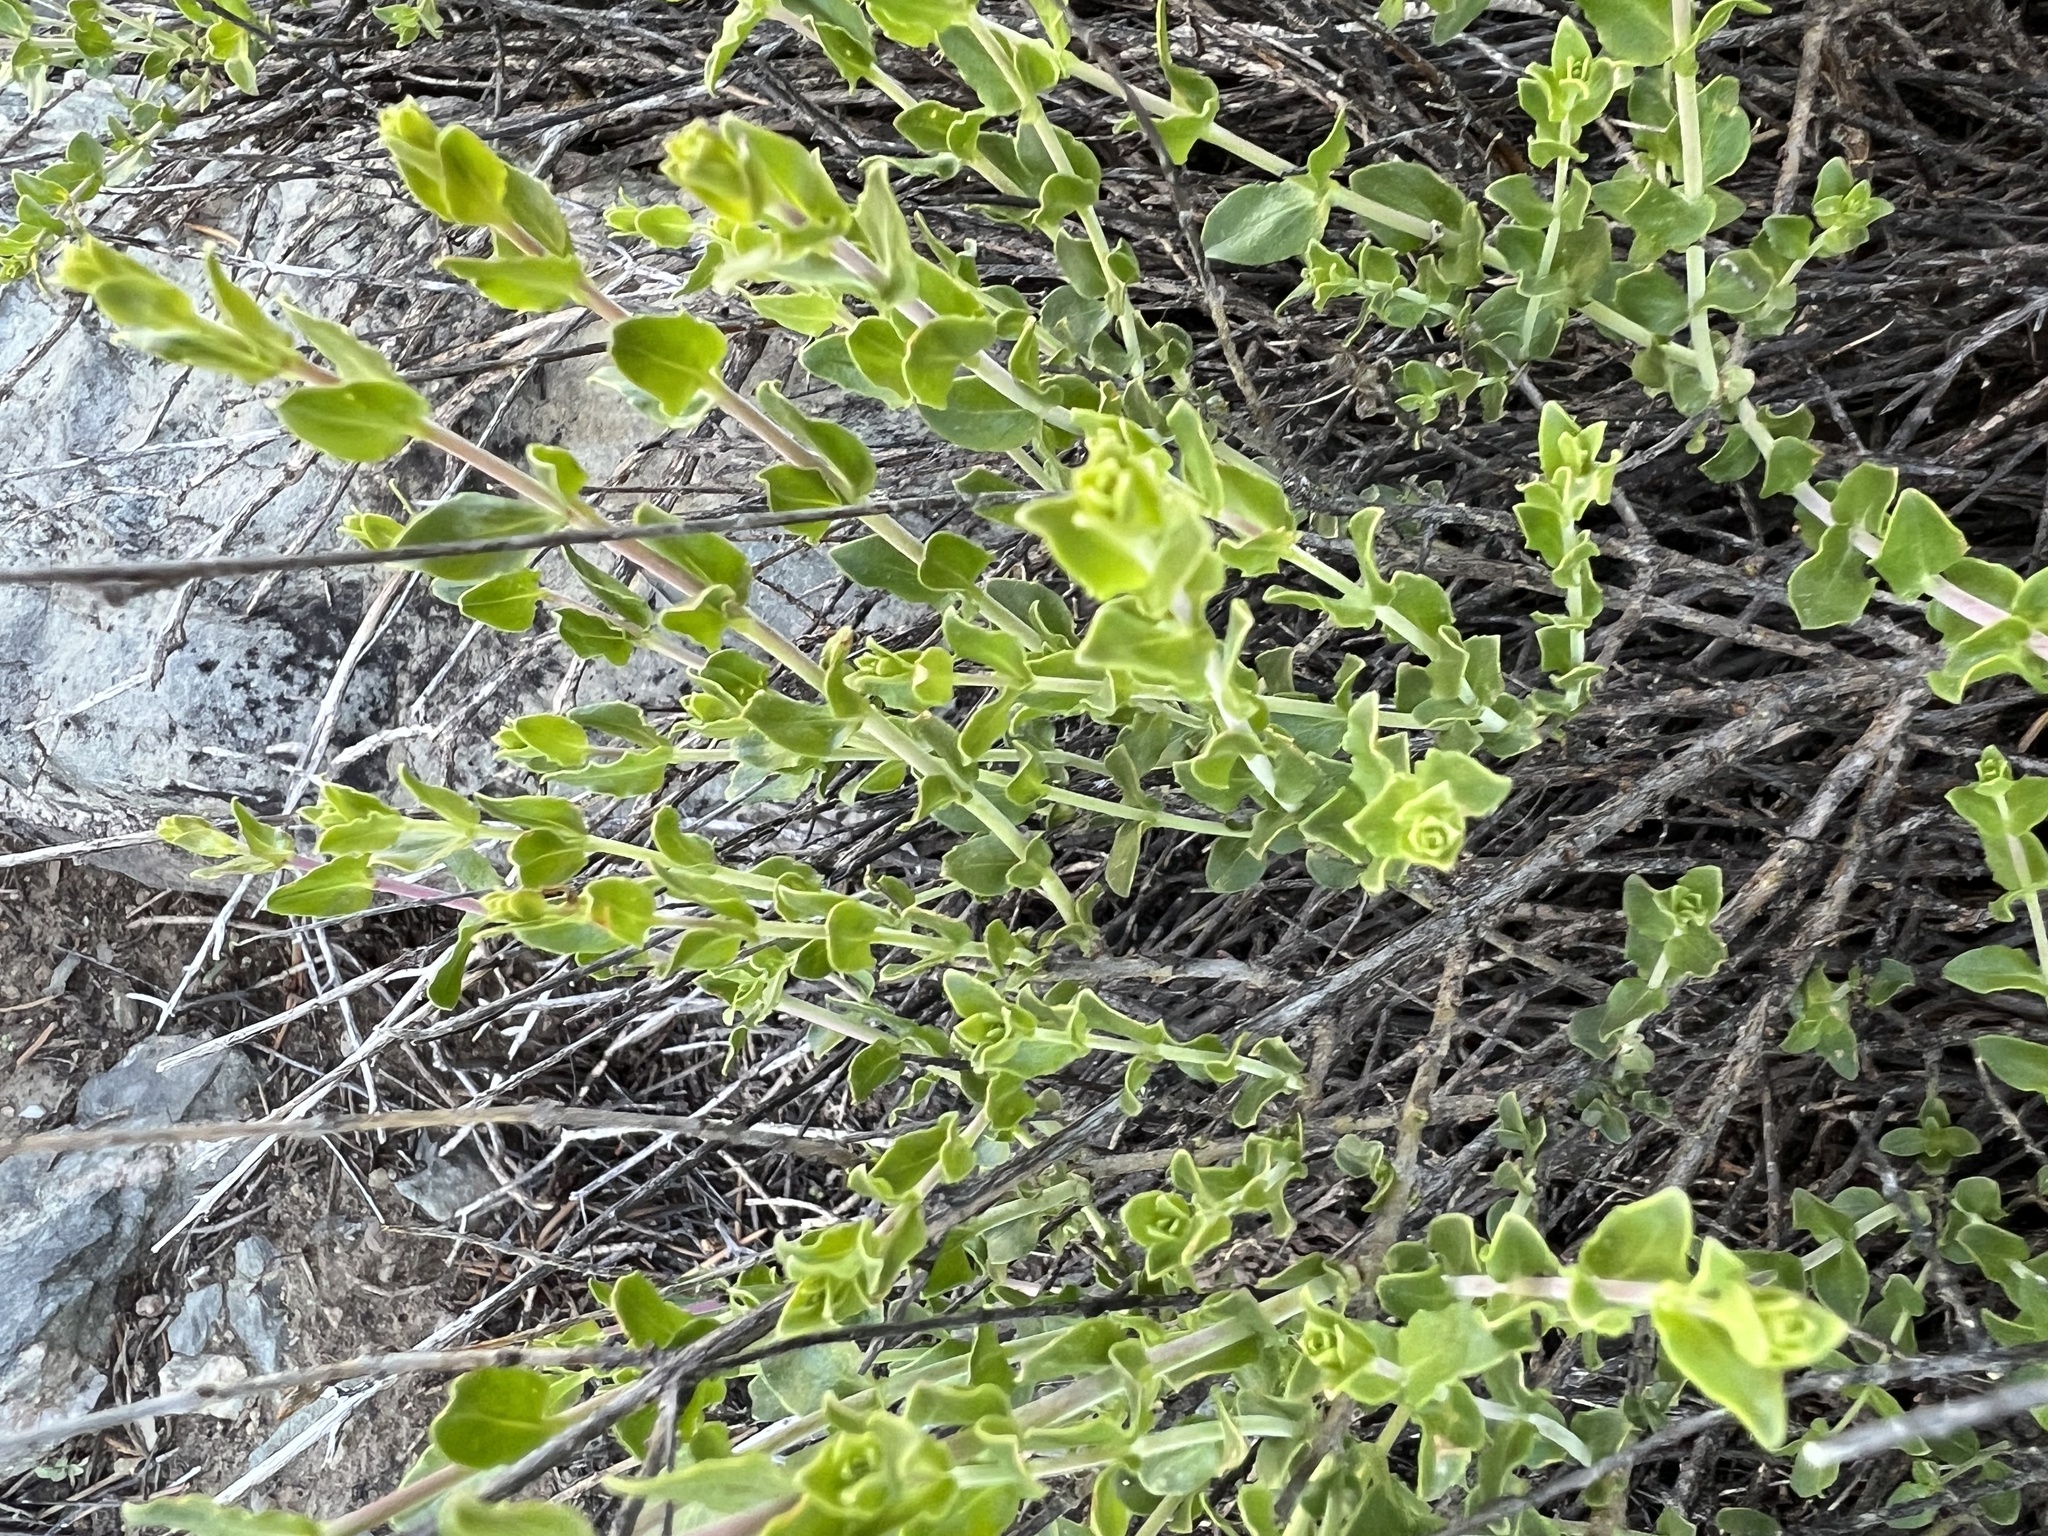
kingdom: Plantae
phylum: Tracheophyta
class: Magnoliopsida
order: Lamiales
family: Plantaginaceae
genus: Keckiella
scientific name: Keckiella rothrockii
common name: Rothrock's keckiella
